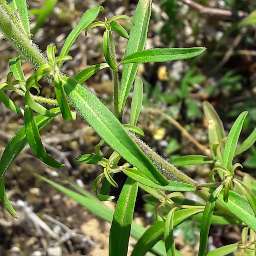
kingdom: Plantae
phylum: Tracheophyta
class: Magnoliopsida
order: Lamiales
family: Plantaginaceae
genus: Linaria
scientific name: Linaria triornithophora
